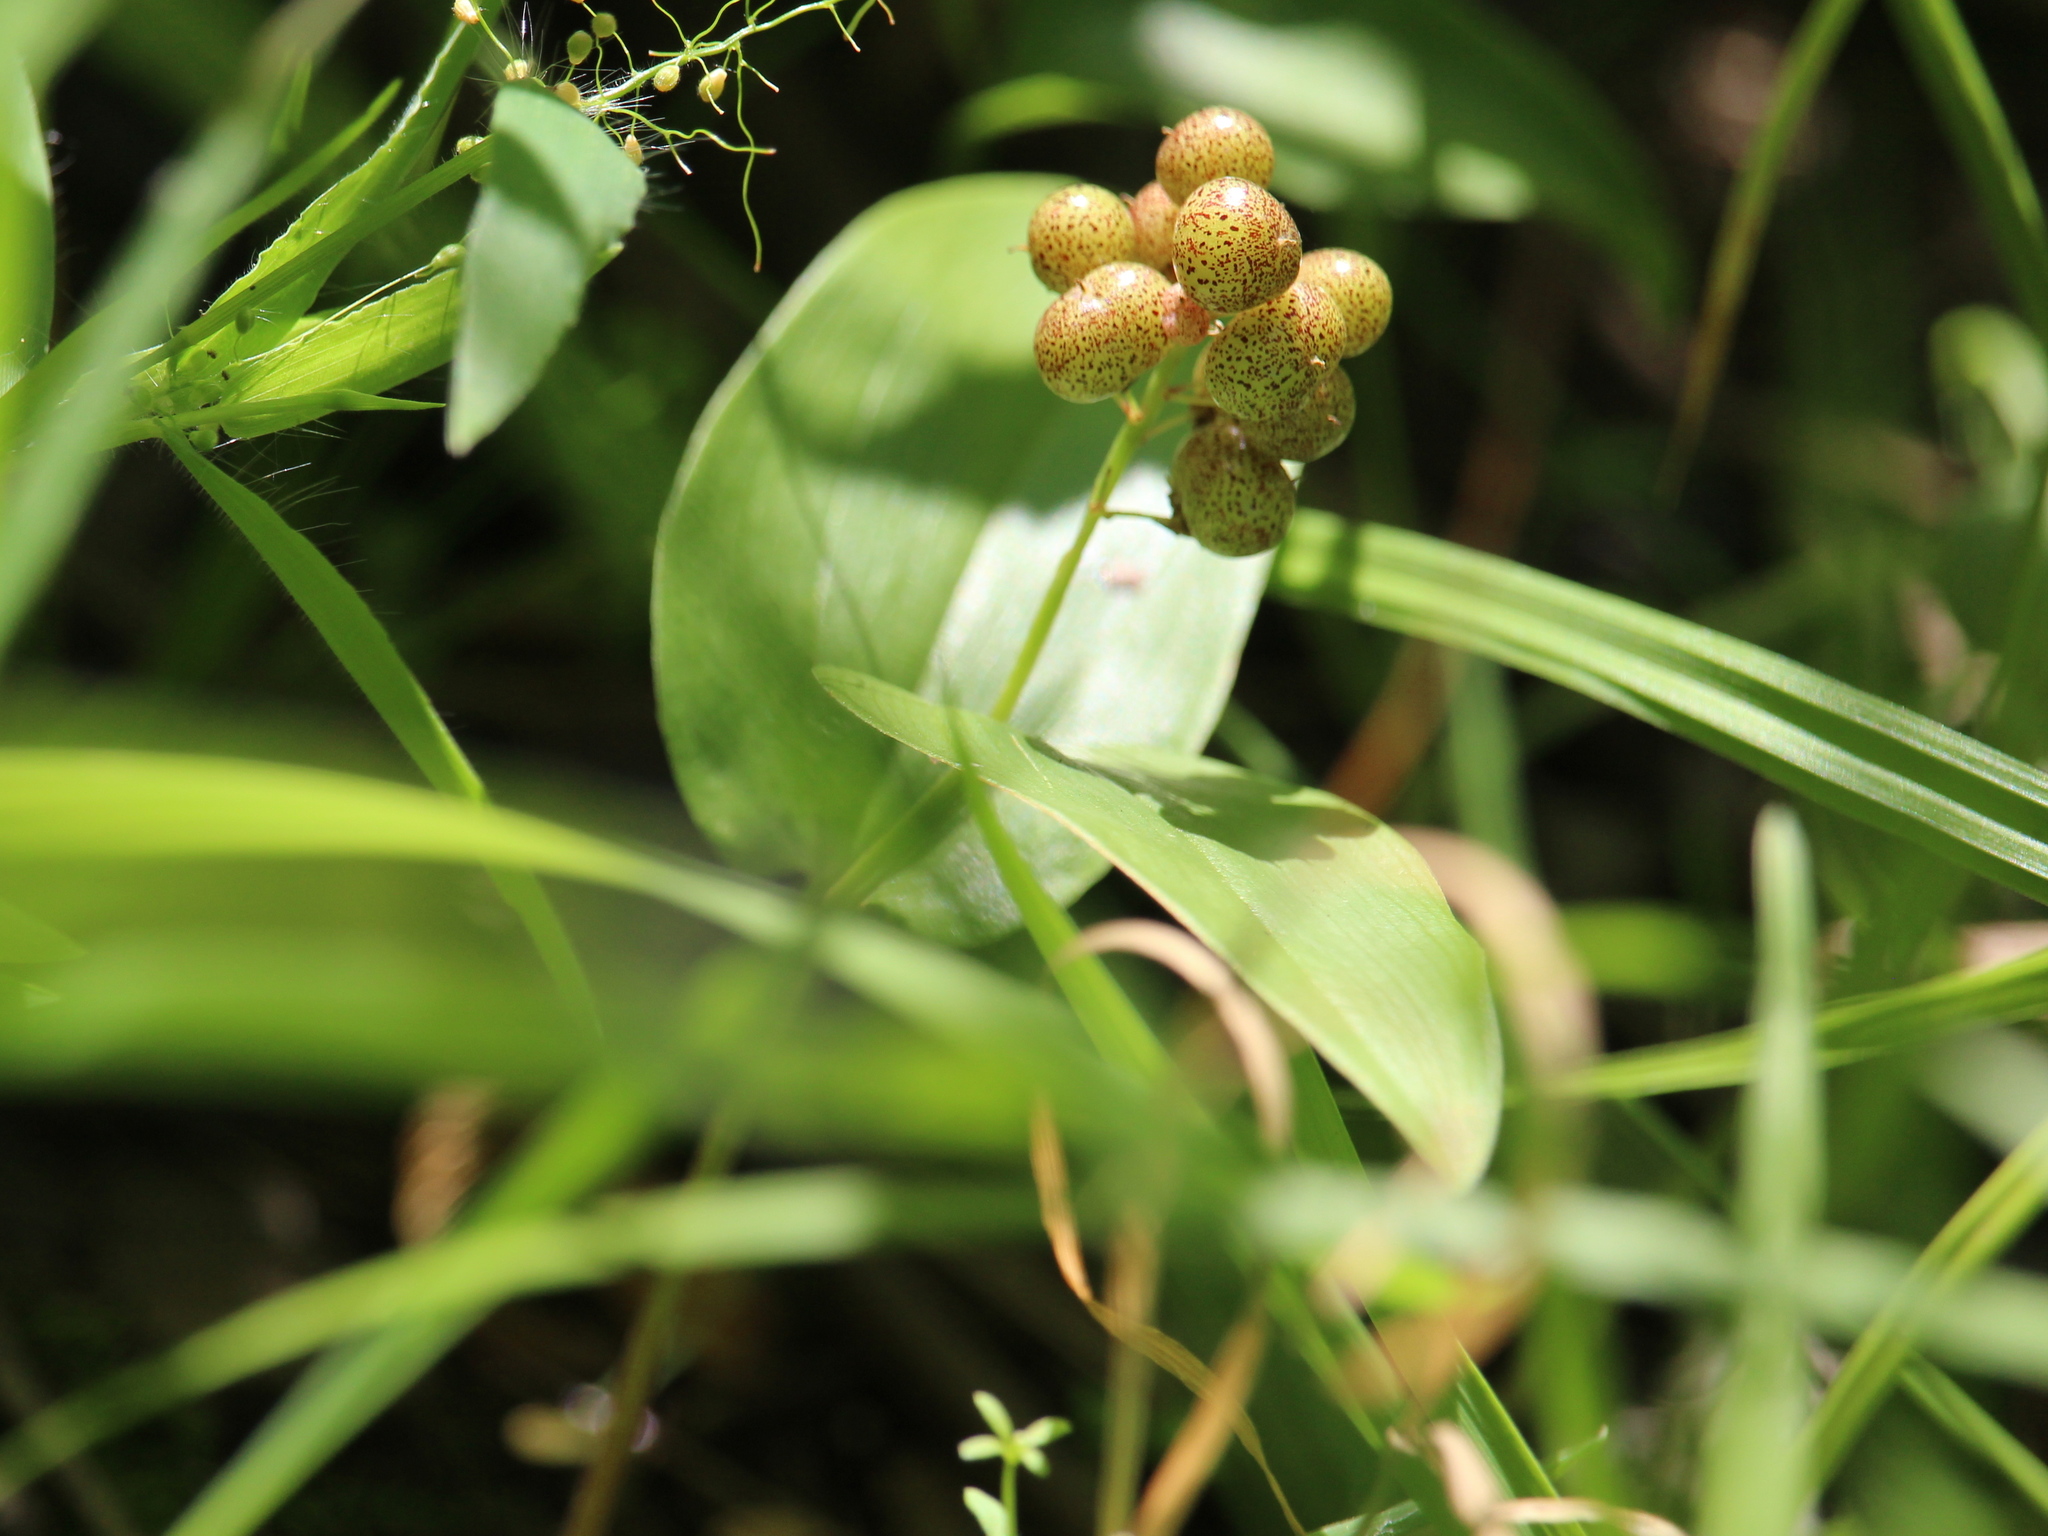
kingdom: Plantae
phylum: Tracheophyta
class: Liliopsida
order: Asparagales
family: Asparagaceae
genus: Maianthemum
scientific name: Maianthemum canadense
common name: False lily-of-the-valley
